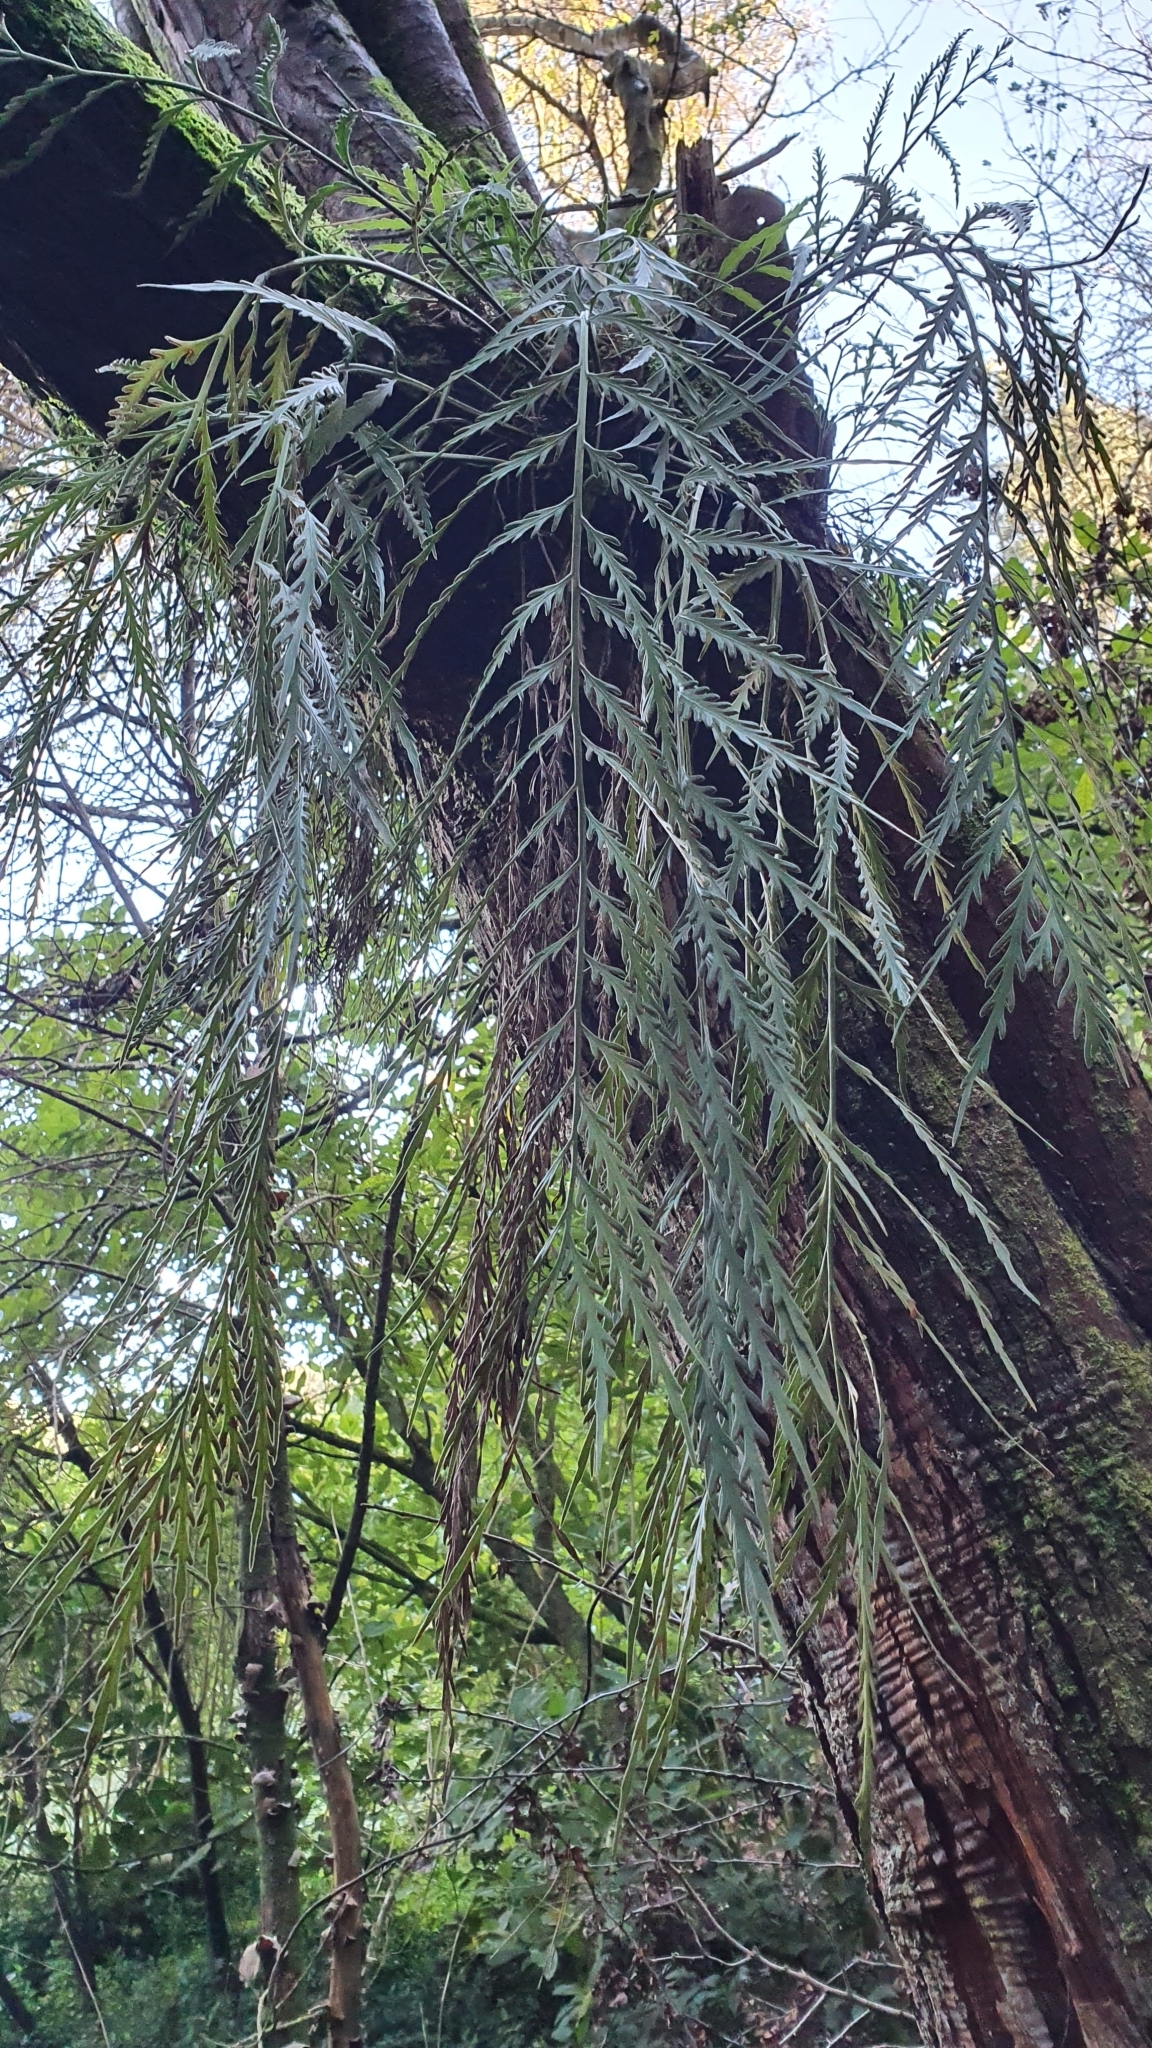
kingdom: Plantae
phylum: Tracheophyta
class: Polypodiopsida
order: Polypodiales
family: Aspleniaceae
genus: Asplenium
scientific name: Asplenium flaccidum
